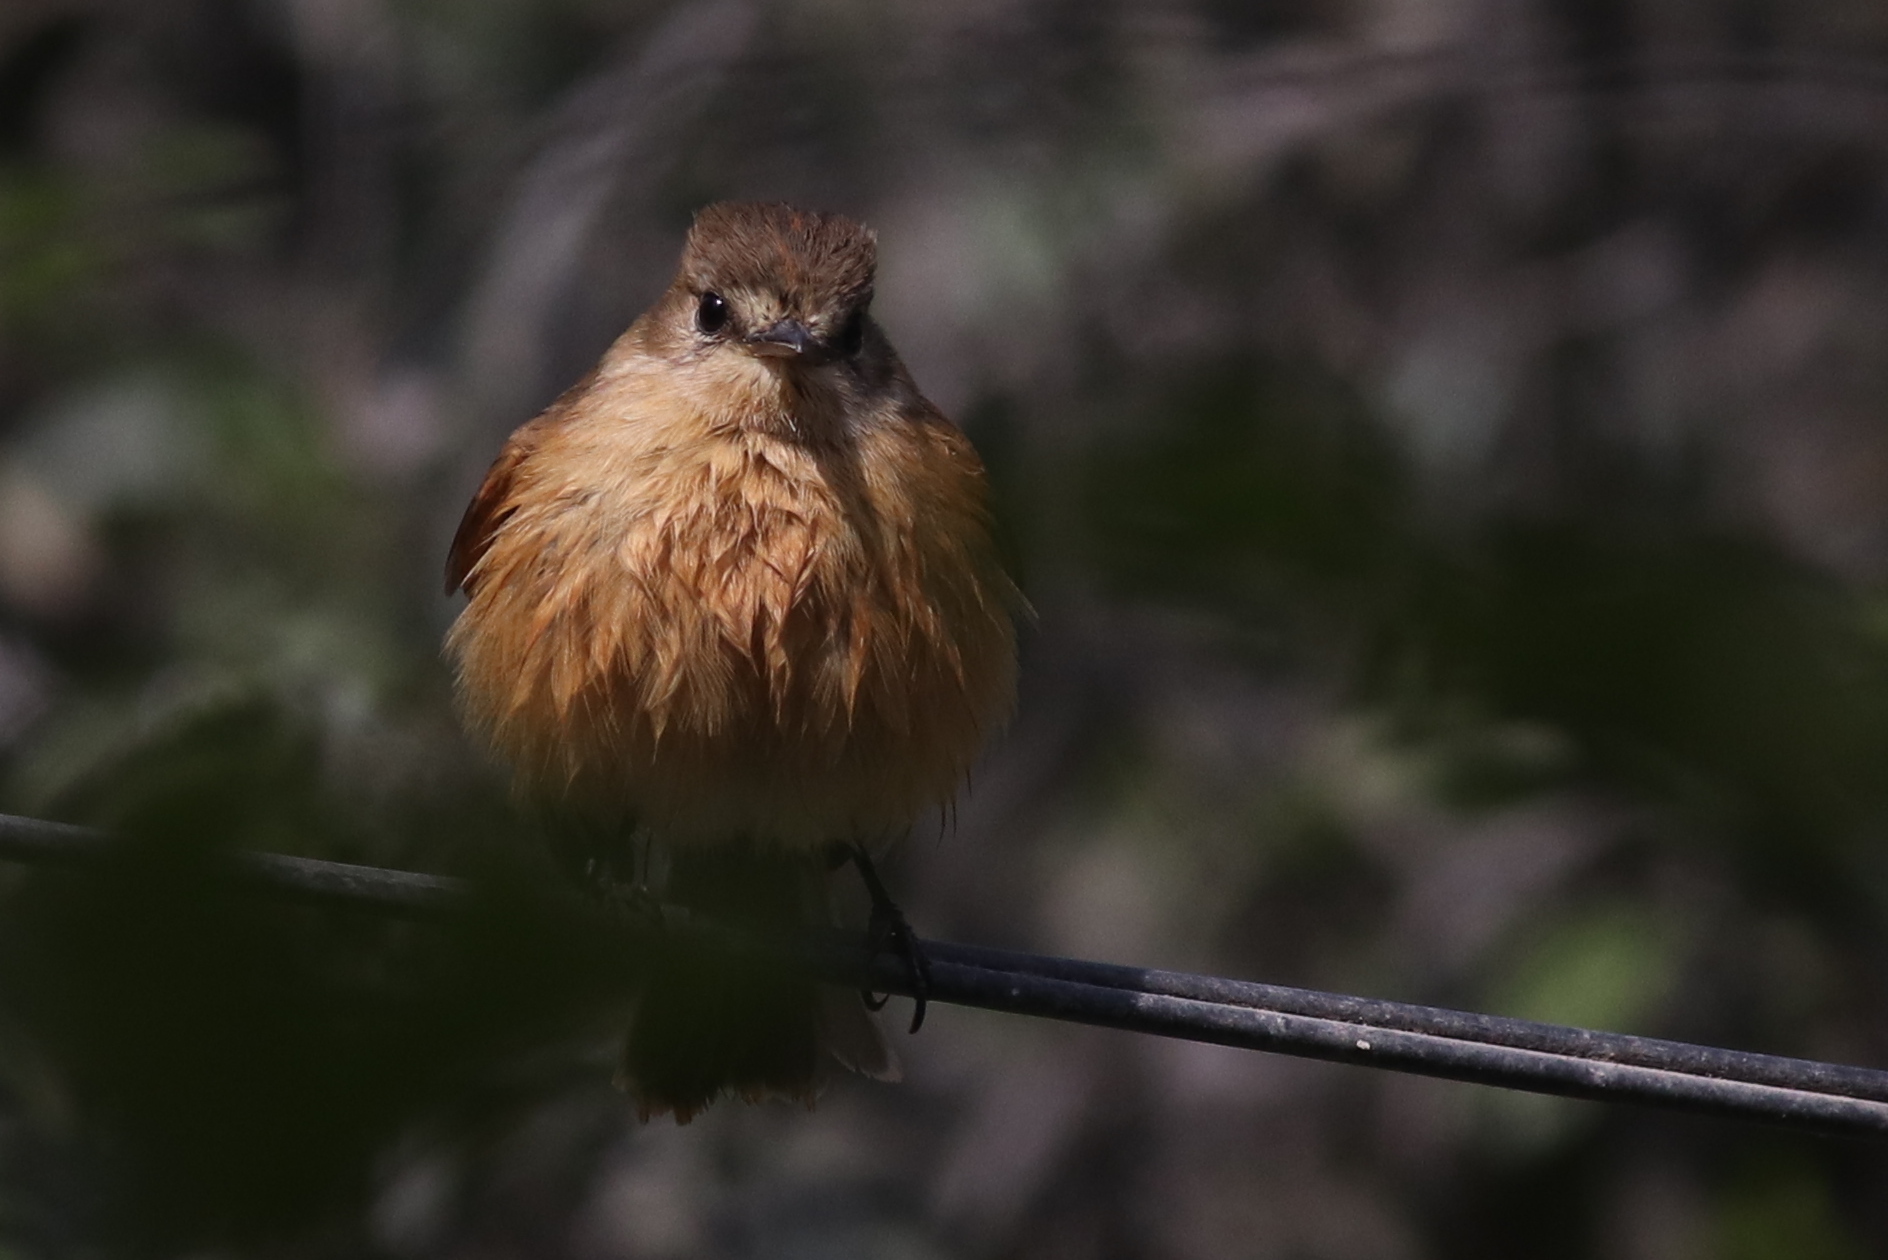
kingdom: Animalia
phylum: Chordata
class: Aves
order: Passeriformes
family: Tyrannidae
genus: Myiophobus
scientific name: Myiophobus fasciatus
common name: Bran-colored flycatcher
